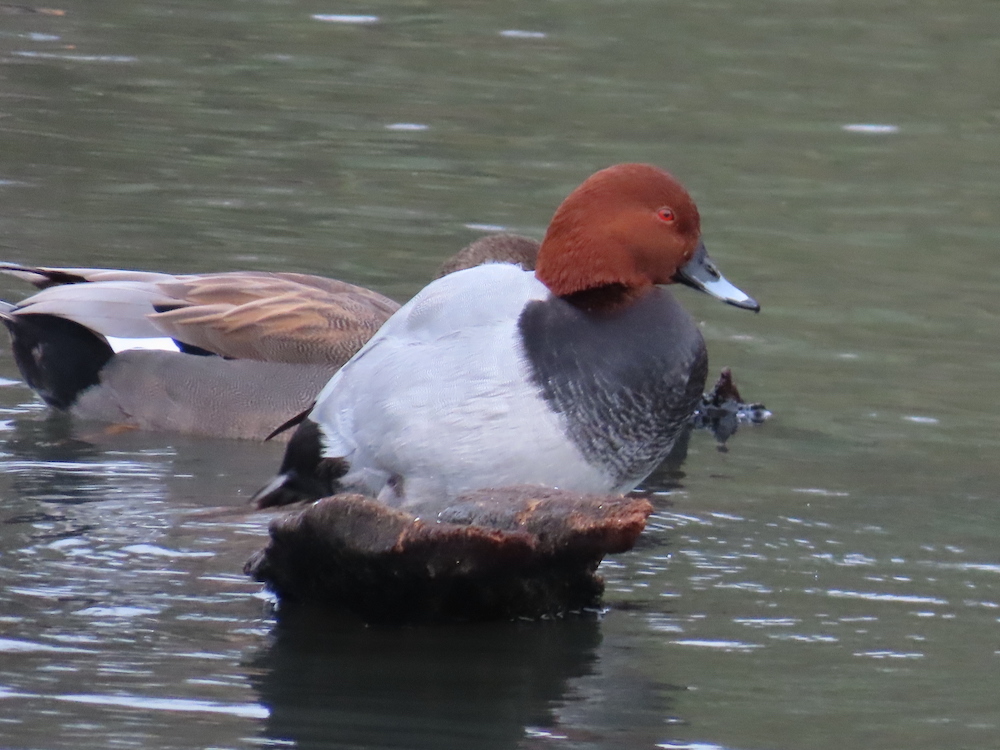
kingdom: Animalia
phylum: Chordata
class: Aves
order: Anseriformes
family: Anatidae
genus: Aythya
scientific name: Aythya ferina
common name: Common pochard
